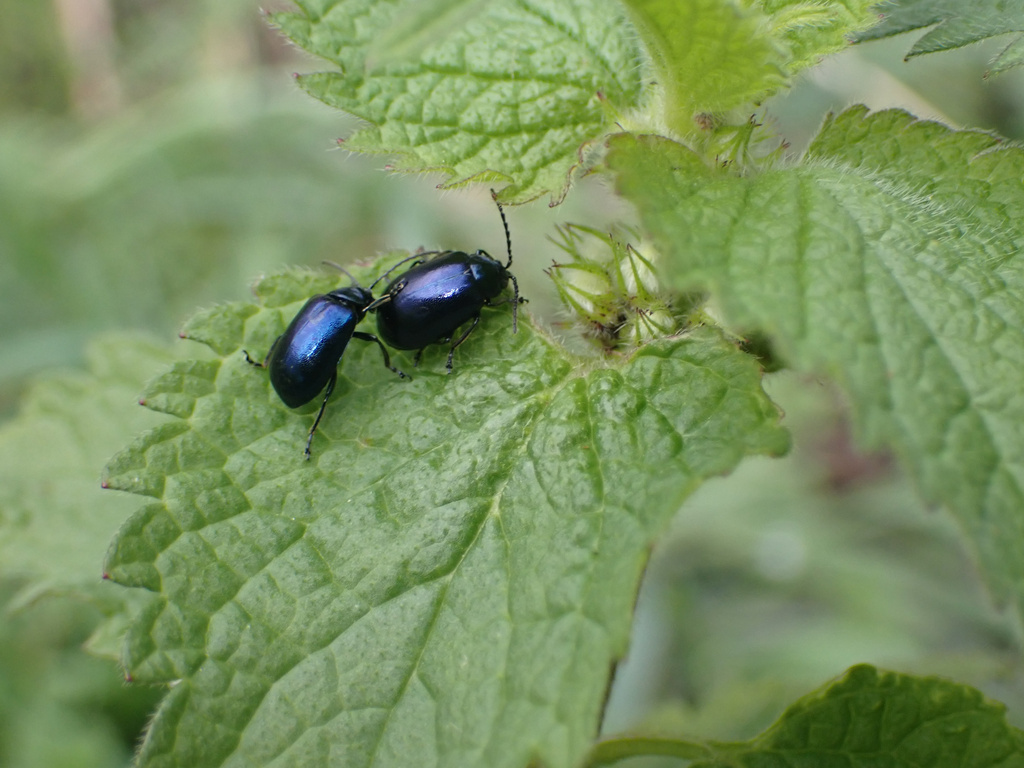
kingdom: Animalia
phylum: Arthropoda
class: Insecta
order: Coleoptera
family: Chrysomelidae
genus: Agelastica
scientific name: Agelastica alni
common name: Alder leaf beetle
